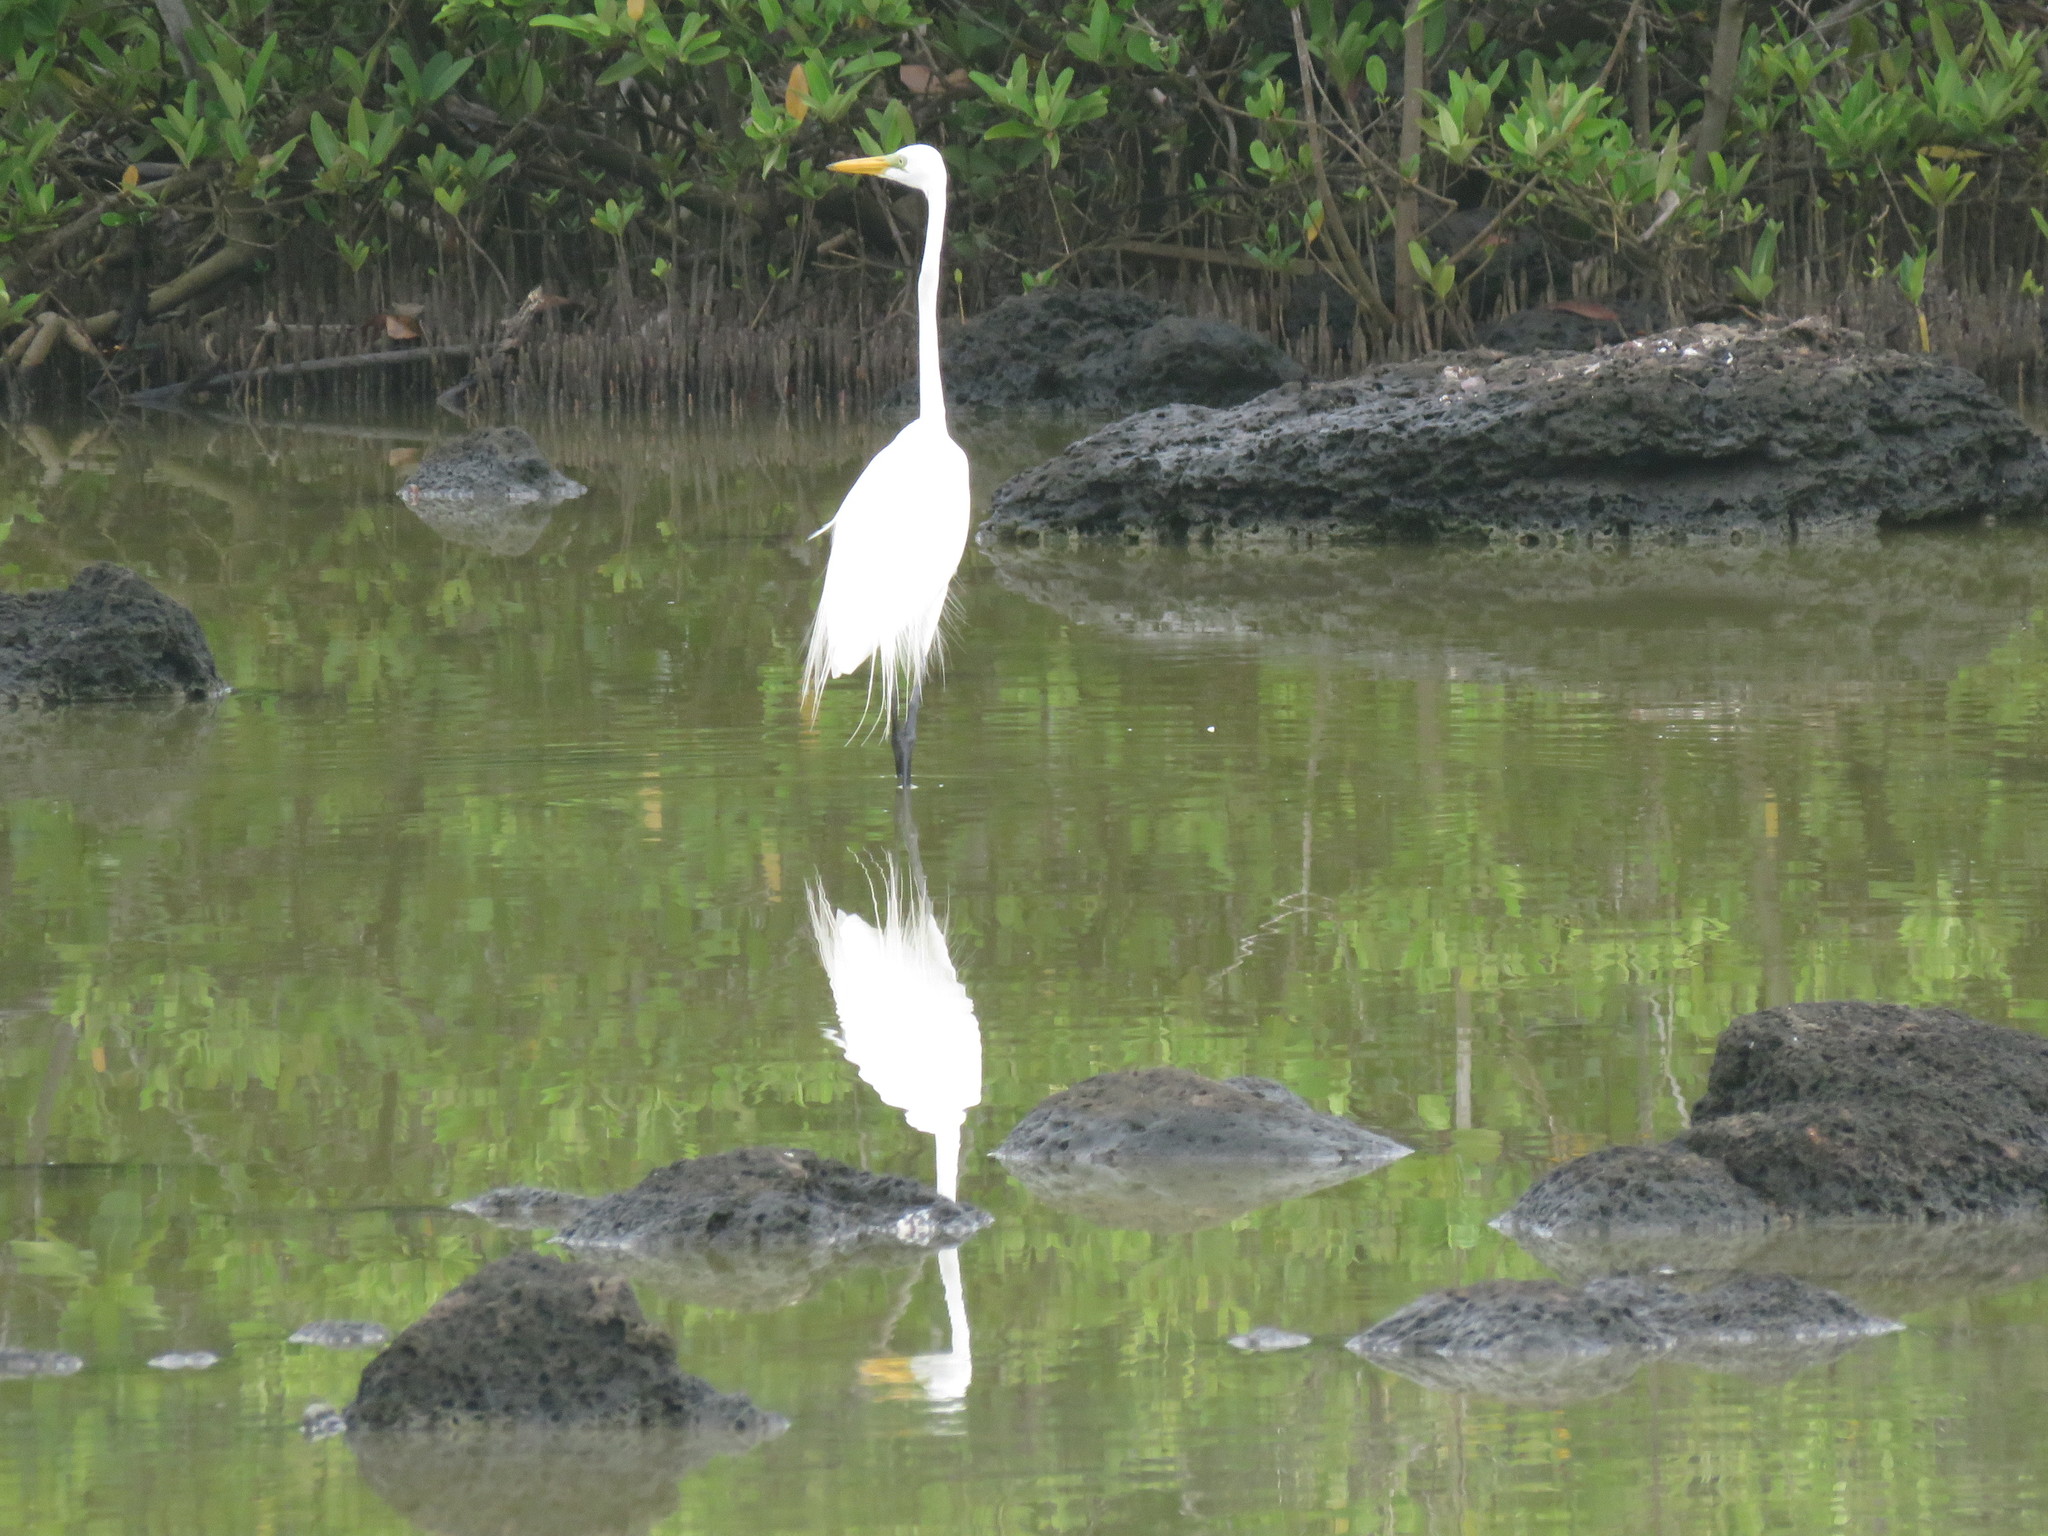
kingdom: Animalia
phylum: Chordata
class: Aves
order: Pelecaniformes
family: Ardeidae
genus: Ardea
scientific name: Ardea alba
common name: Great egret
